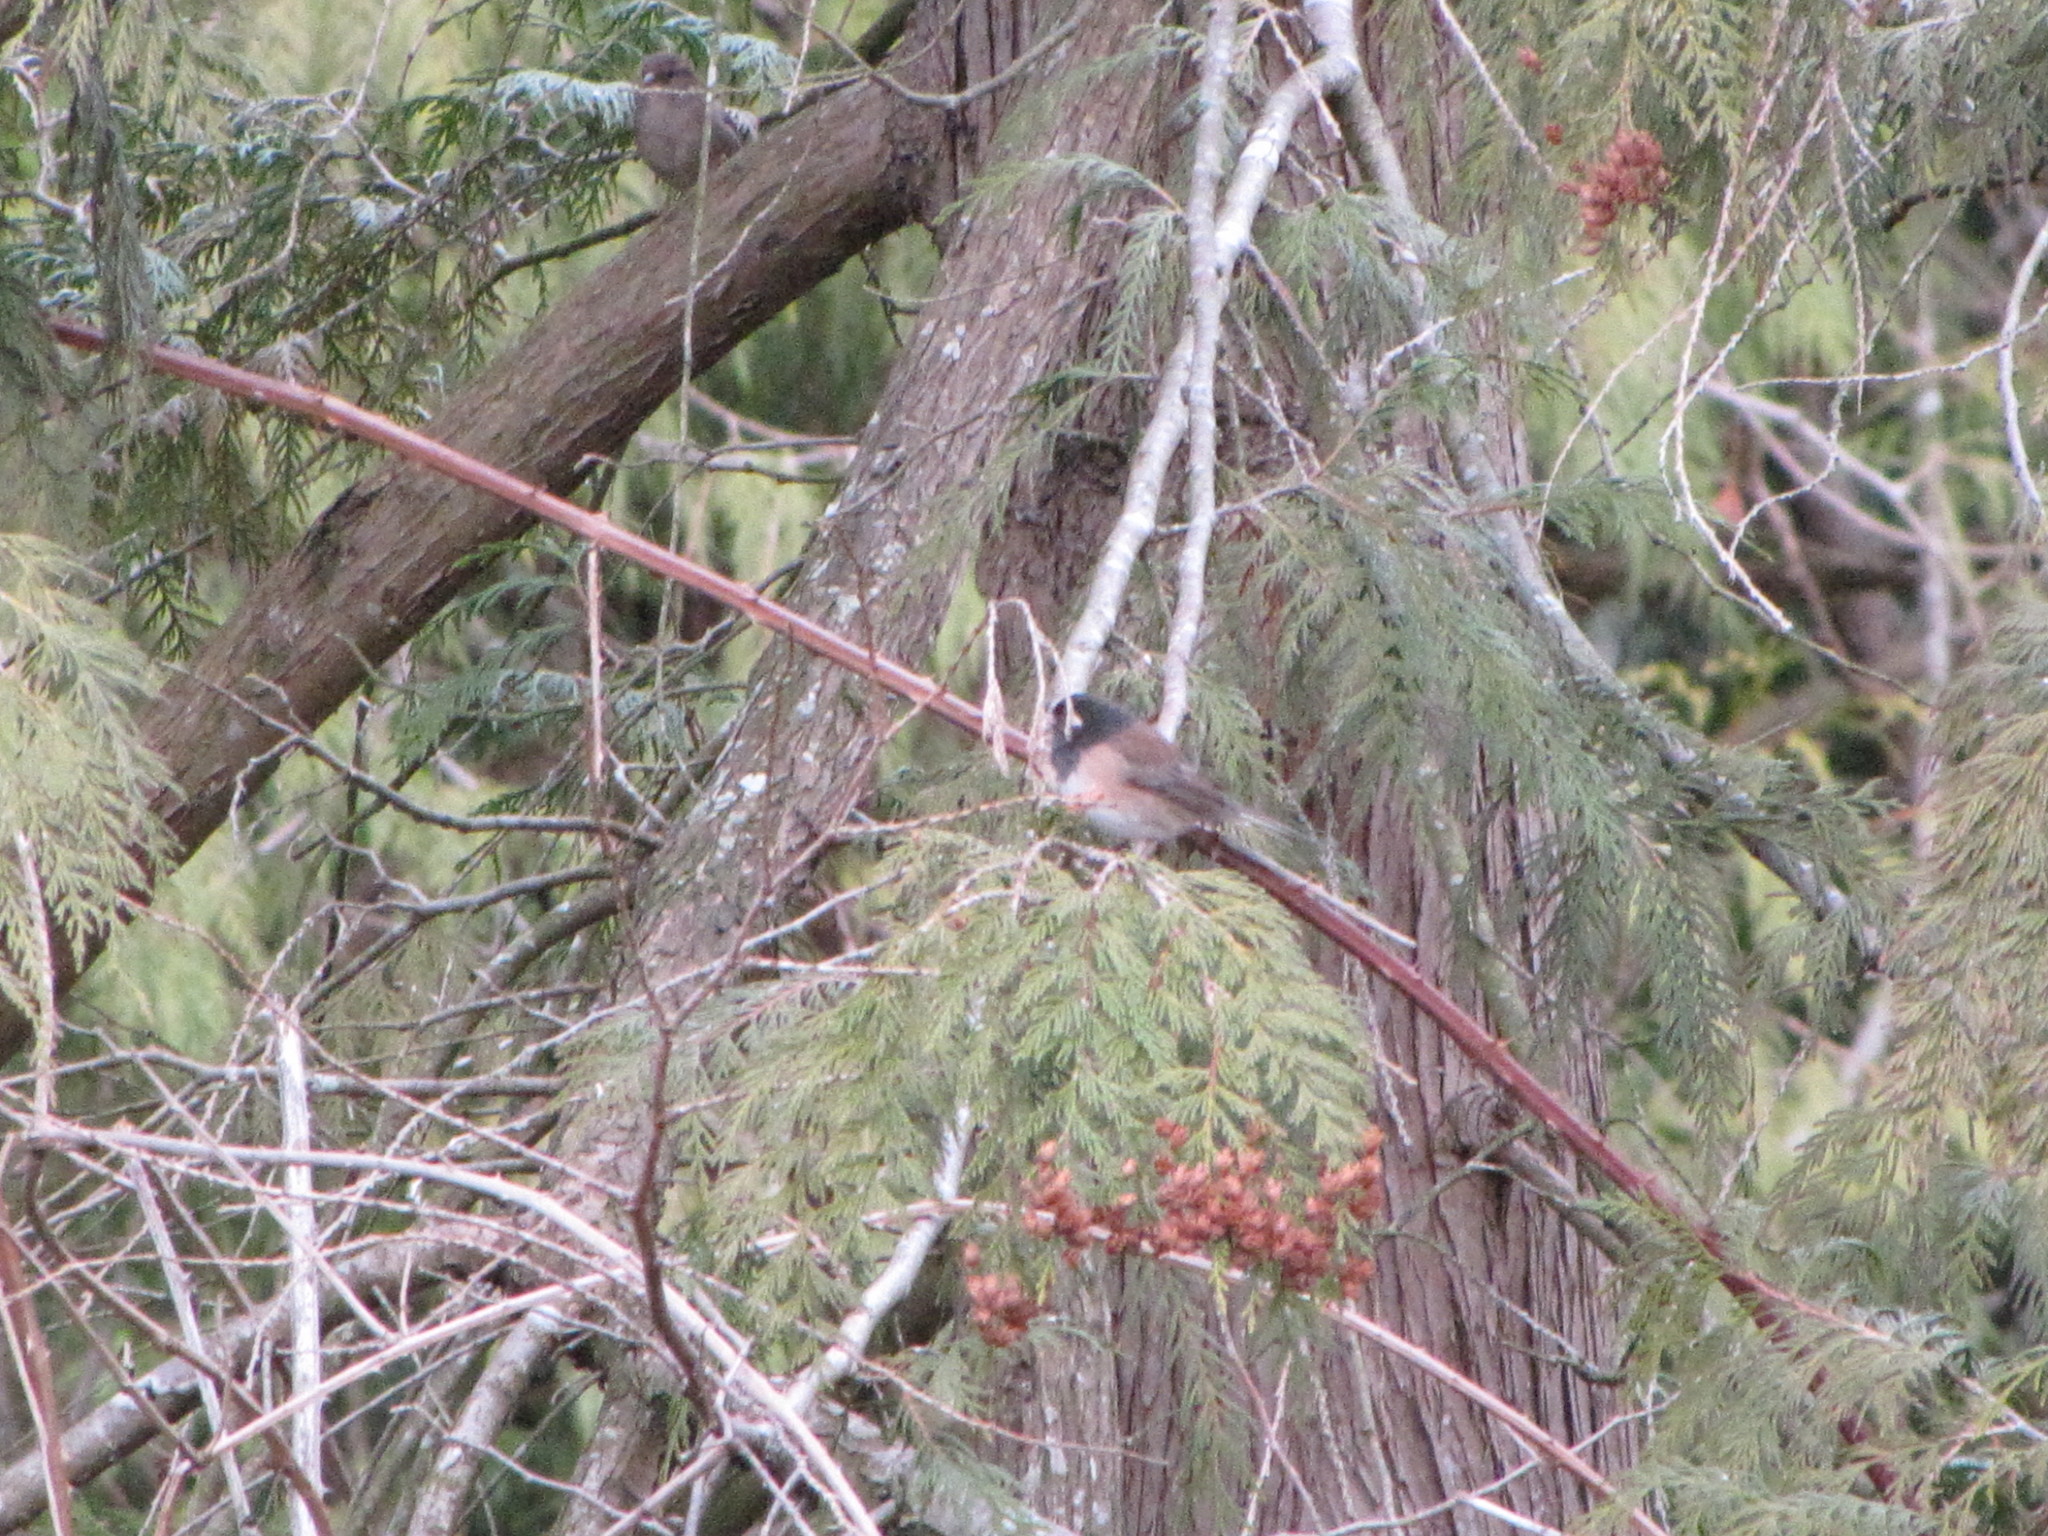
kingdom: Animalia
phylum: Chordata
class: Aves
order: Passeriformes
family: Passerellidae
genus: Junco
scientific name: Junco hyemalis
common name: Dark-eyed junco
